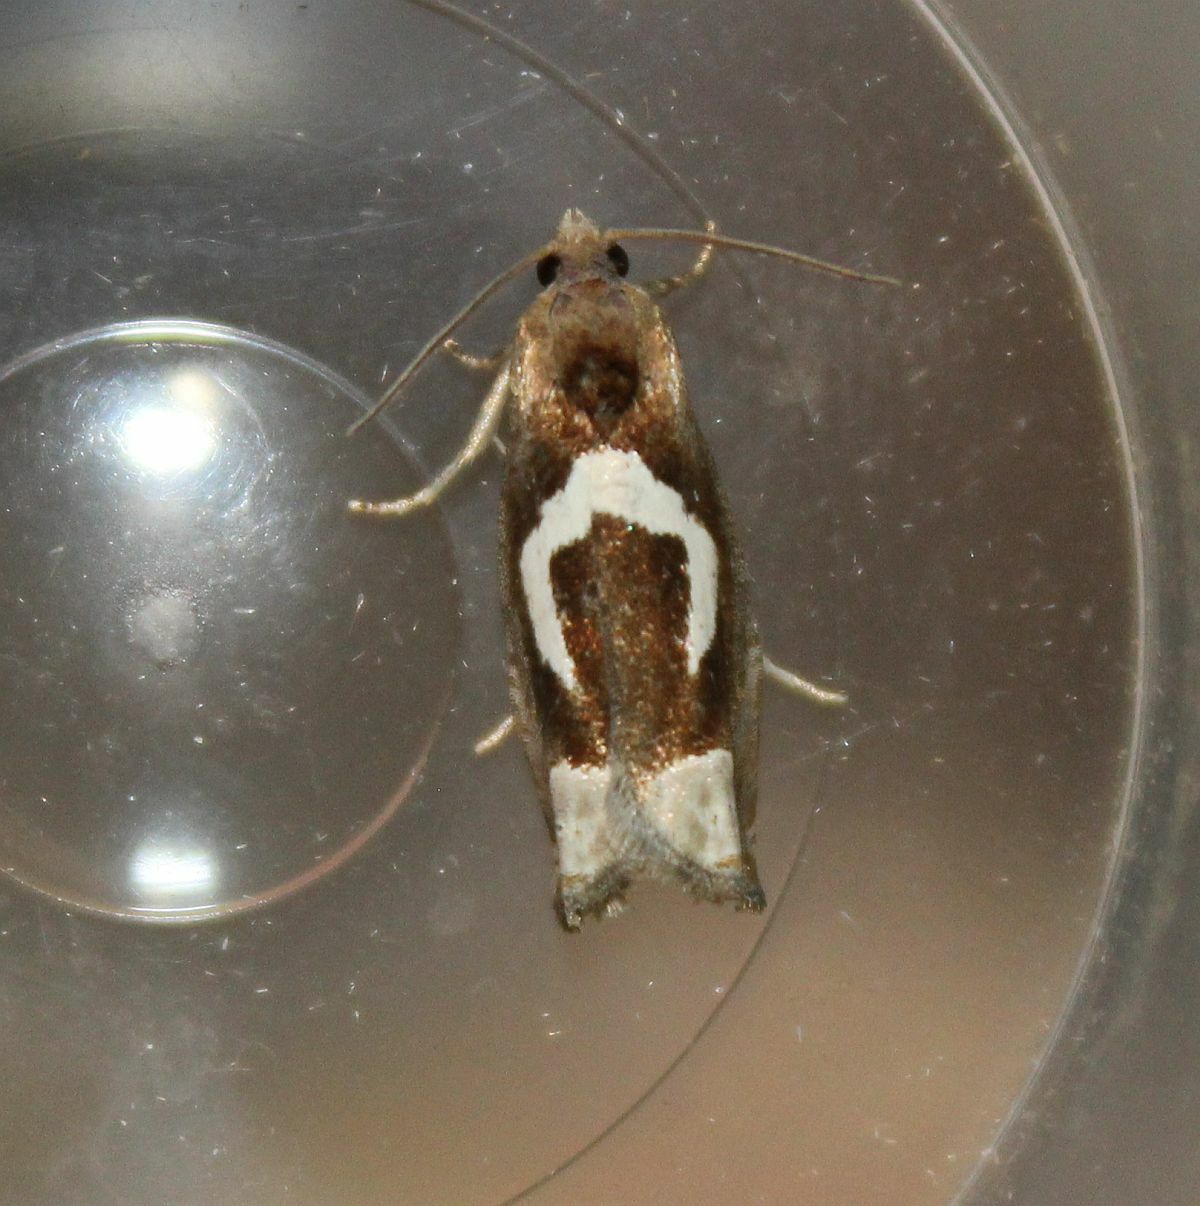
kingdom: Animalia
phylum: Arthropoda
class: Insecta
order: Lepidoptera
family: Tortricidae
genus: Epiblema
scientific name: Epiblema foenella
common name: White-foot bell
